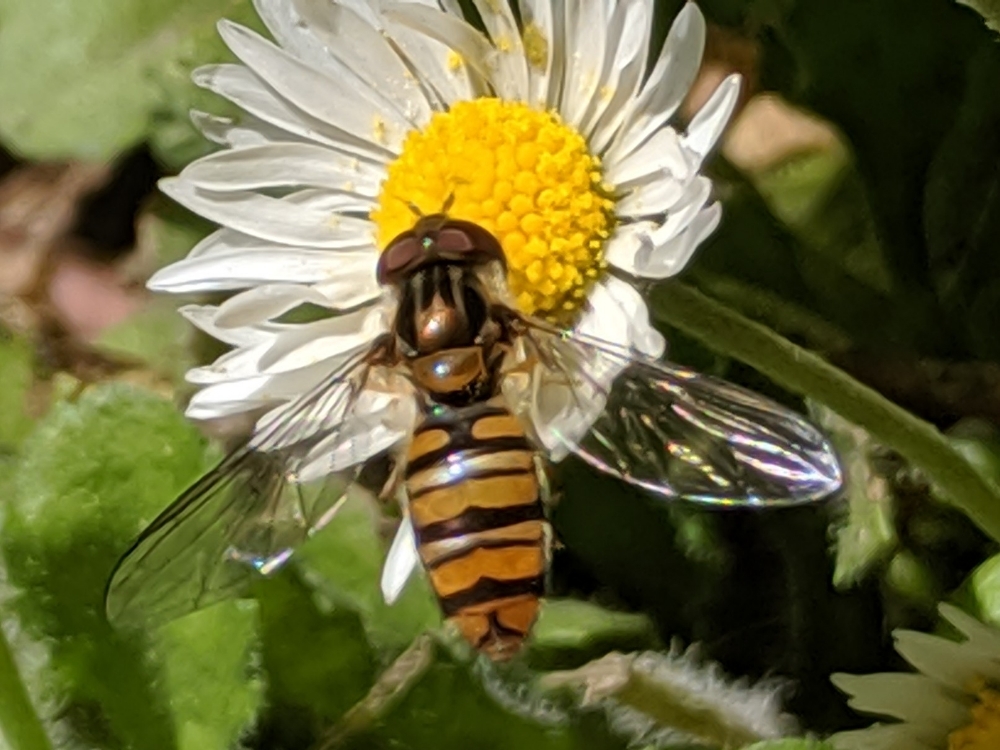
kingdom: Animalia
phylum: Arthropoda
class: Insecta
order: Diptera
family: Syrphidae
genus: Episyrphus
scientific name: Episyrphus balteatus
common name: Marmalade hoverfly
